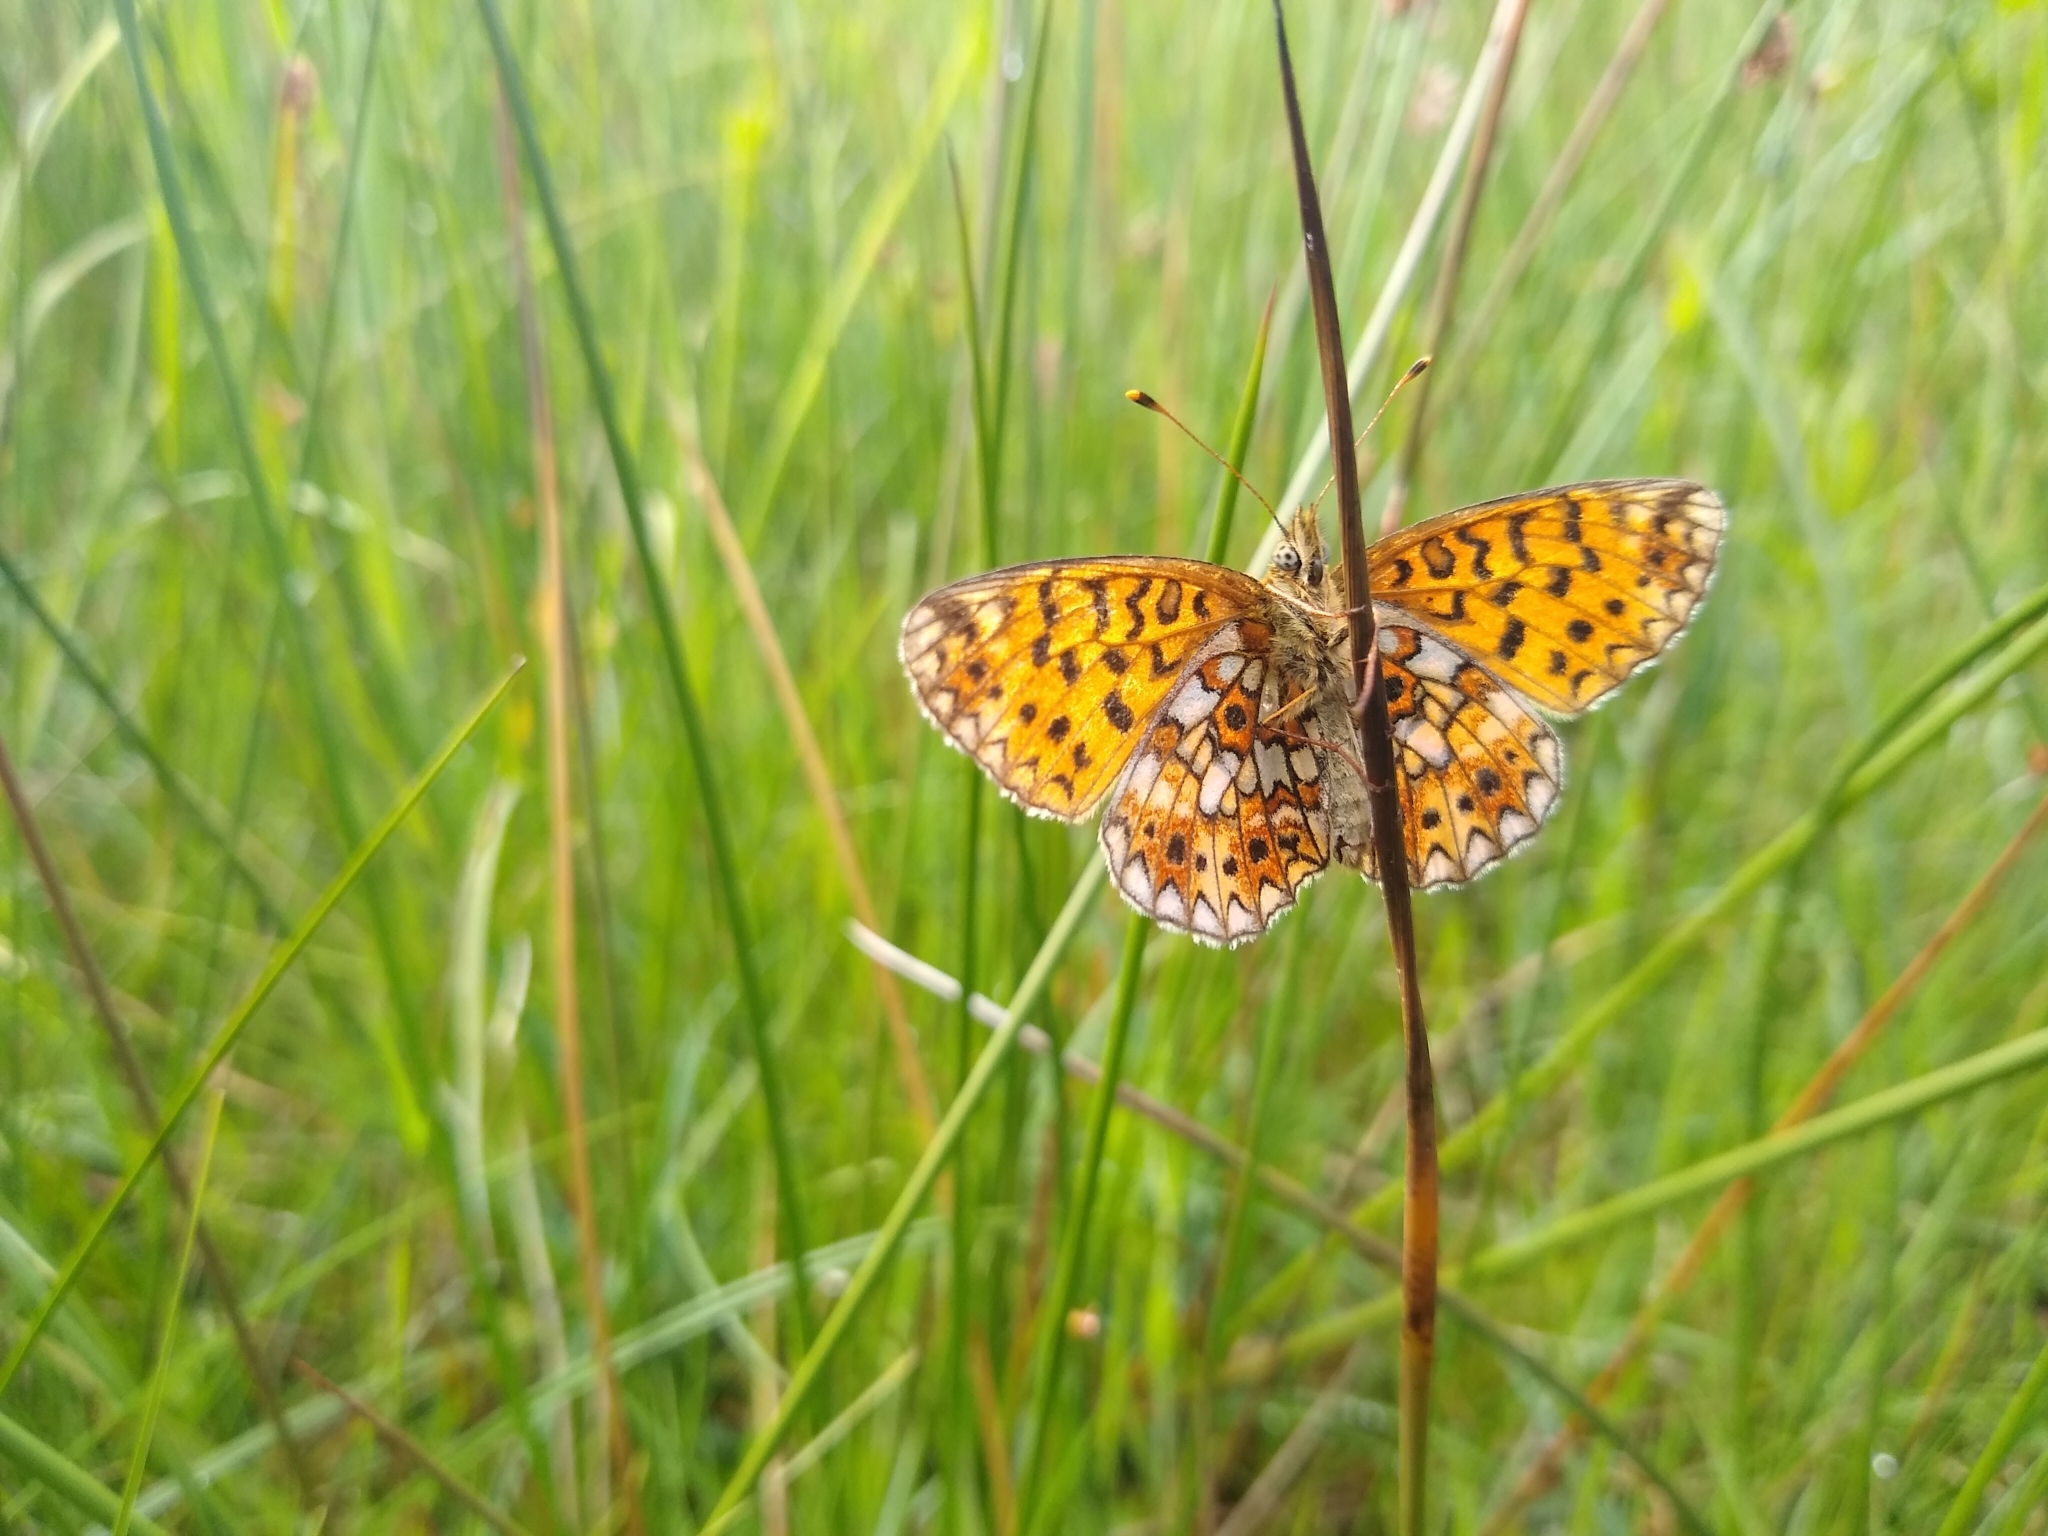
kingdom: Animalia
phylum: Arthropoda
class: Insecta
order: Lepidoptera
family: Nymphalidae
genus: Boloria
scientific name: Boloria selene
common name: Small pearl-bordered fritillary
